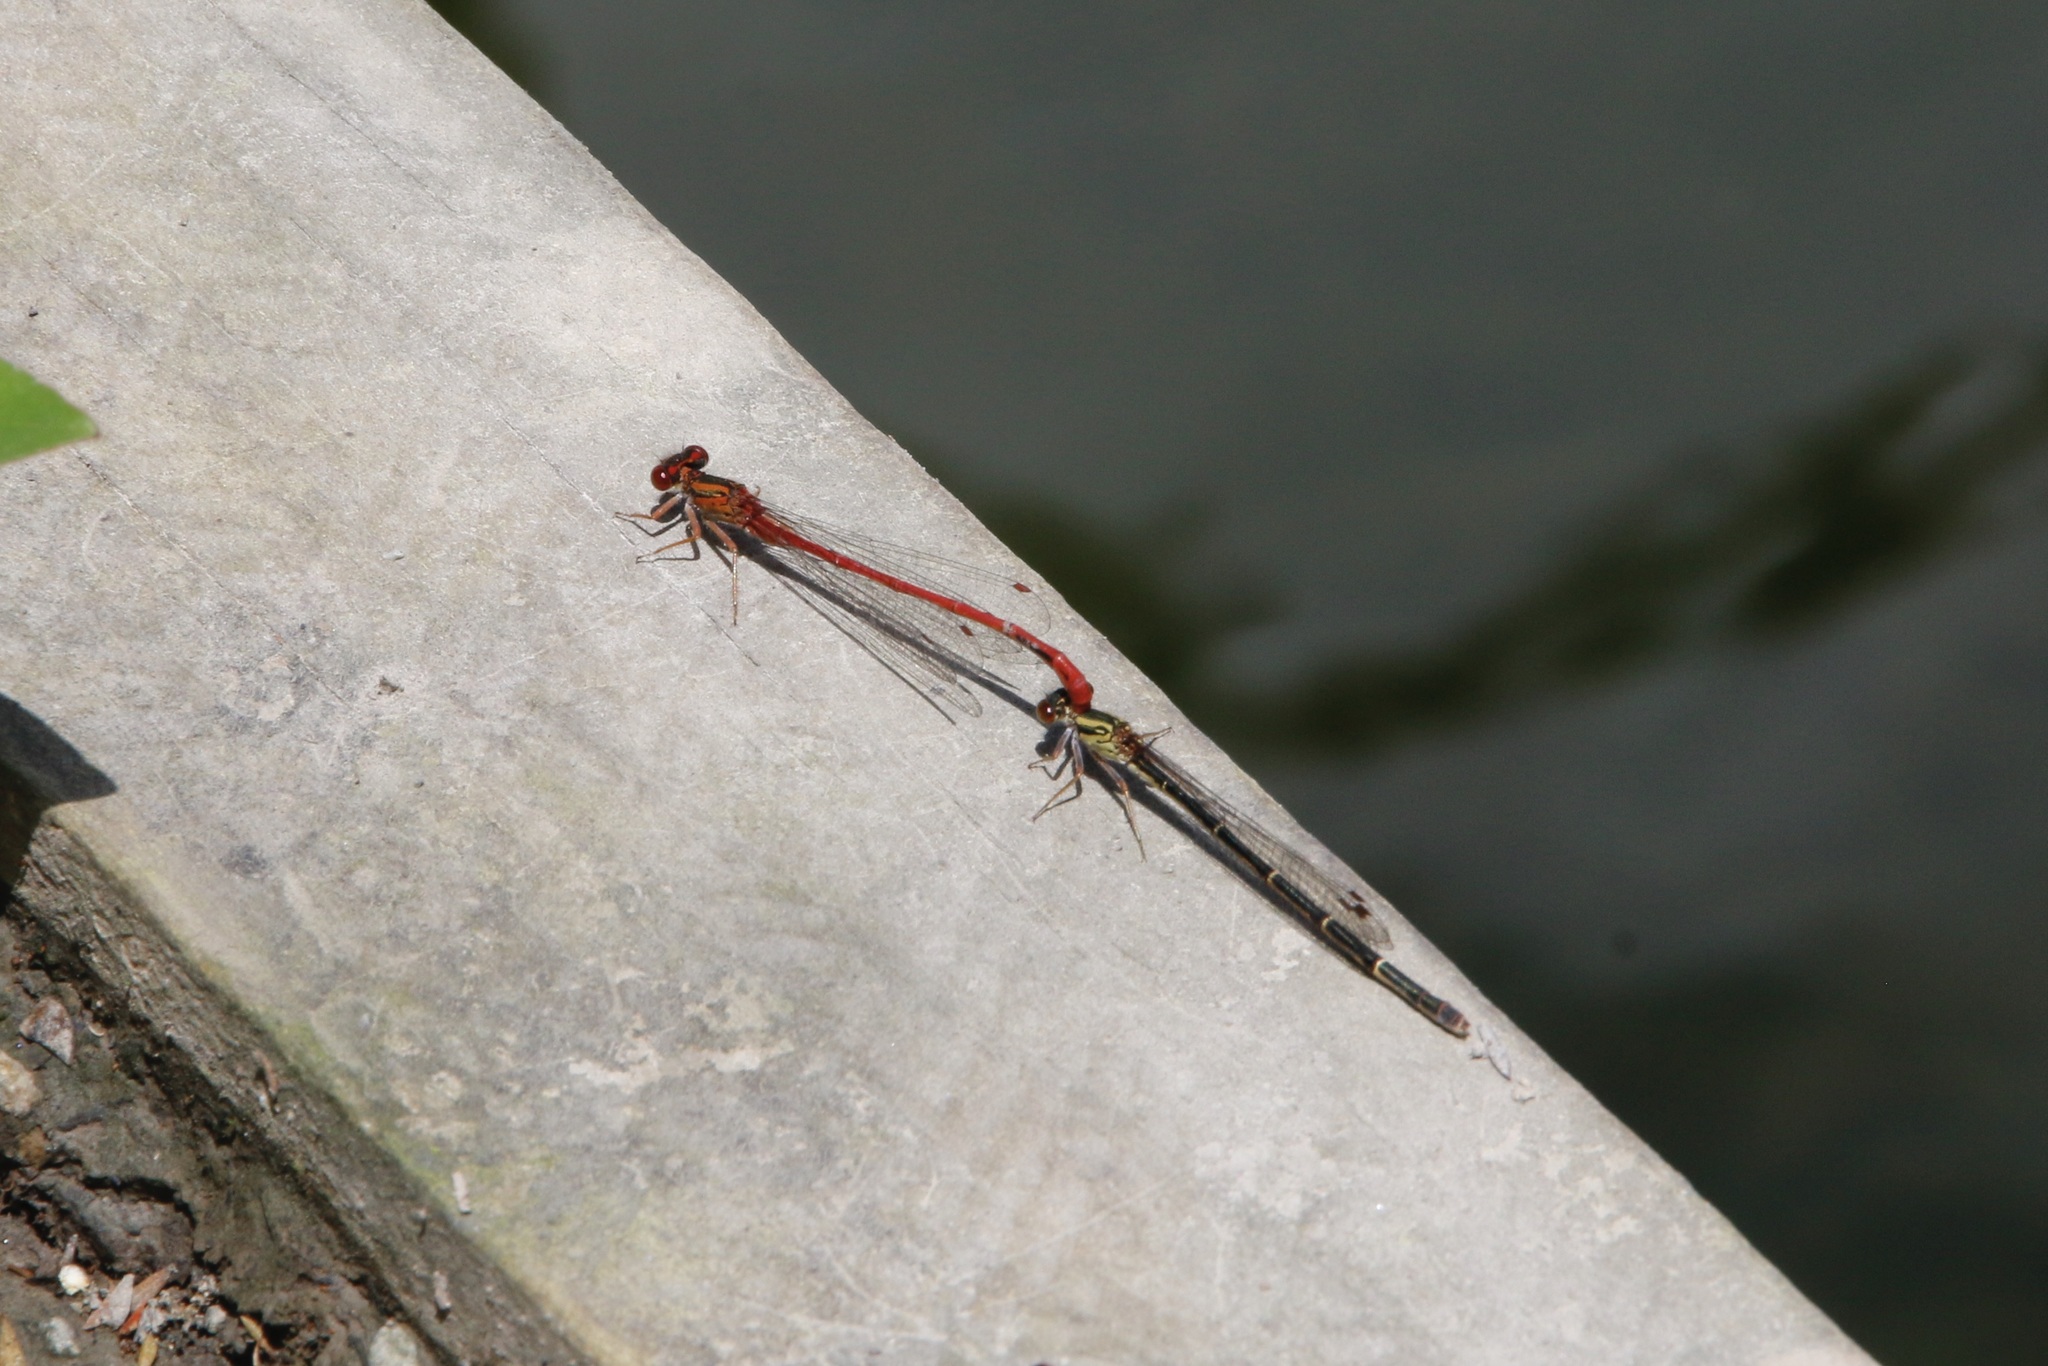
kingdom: Animalia
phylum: Arthropoda
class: Insecta
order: Odonata
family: Coenagrionidae
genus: Xanthocnemis
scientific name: Xanthocnemis zealandica
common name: Common redcoat damselfly
